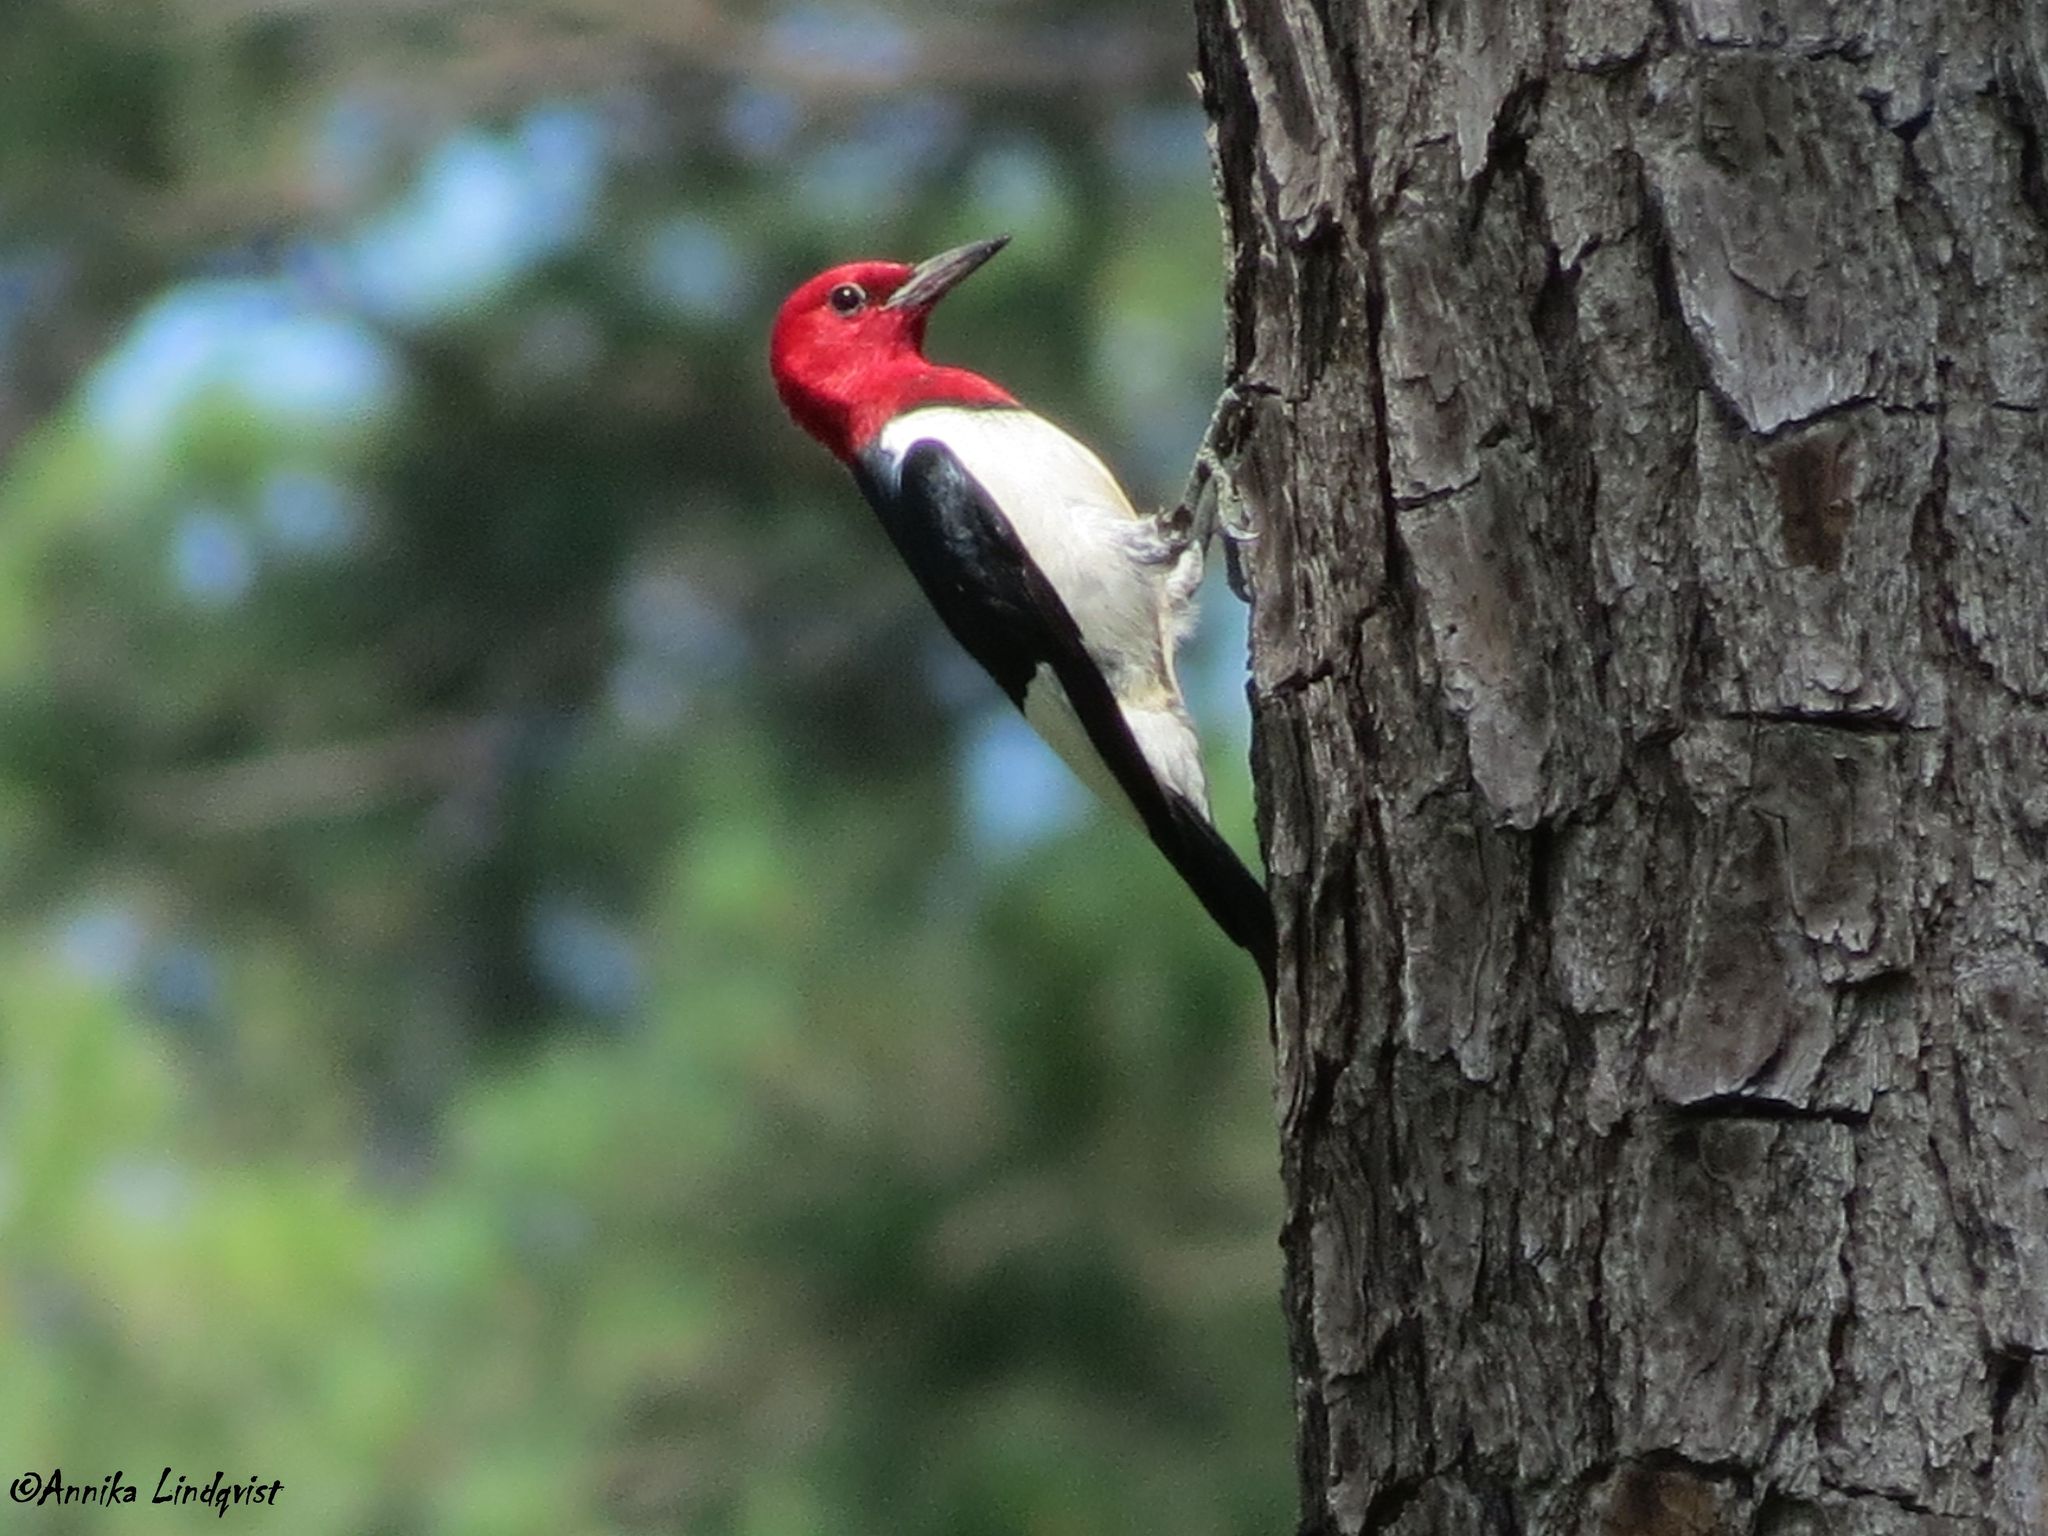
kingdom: Animalia
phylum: Chordata
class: Aves
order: Piciformes
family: Picidae
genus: Melanerpes
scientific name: Melanerpes erythrocephalus
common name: Red-headed woodpecker
